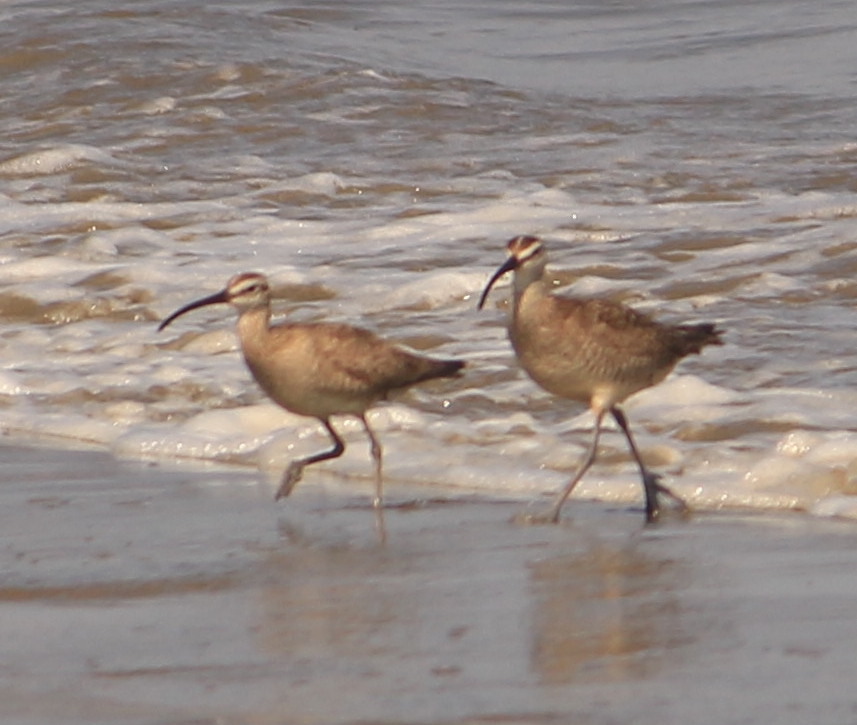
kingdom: Animalia
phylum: Chordata
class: Aves
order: Charadriiformes
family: Scolopacidae
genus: Numenius
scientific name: Numenius phaeopus
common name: Whimbrel
